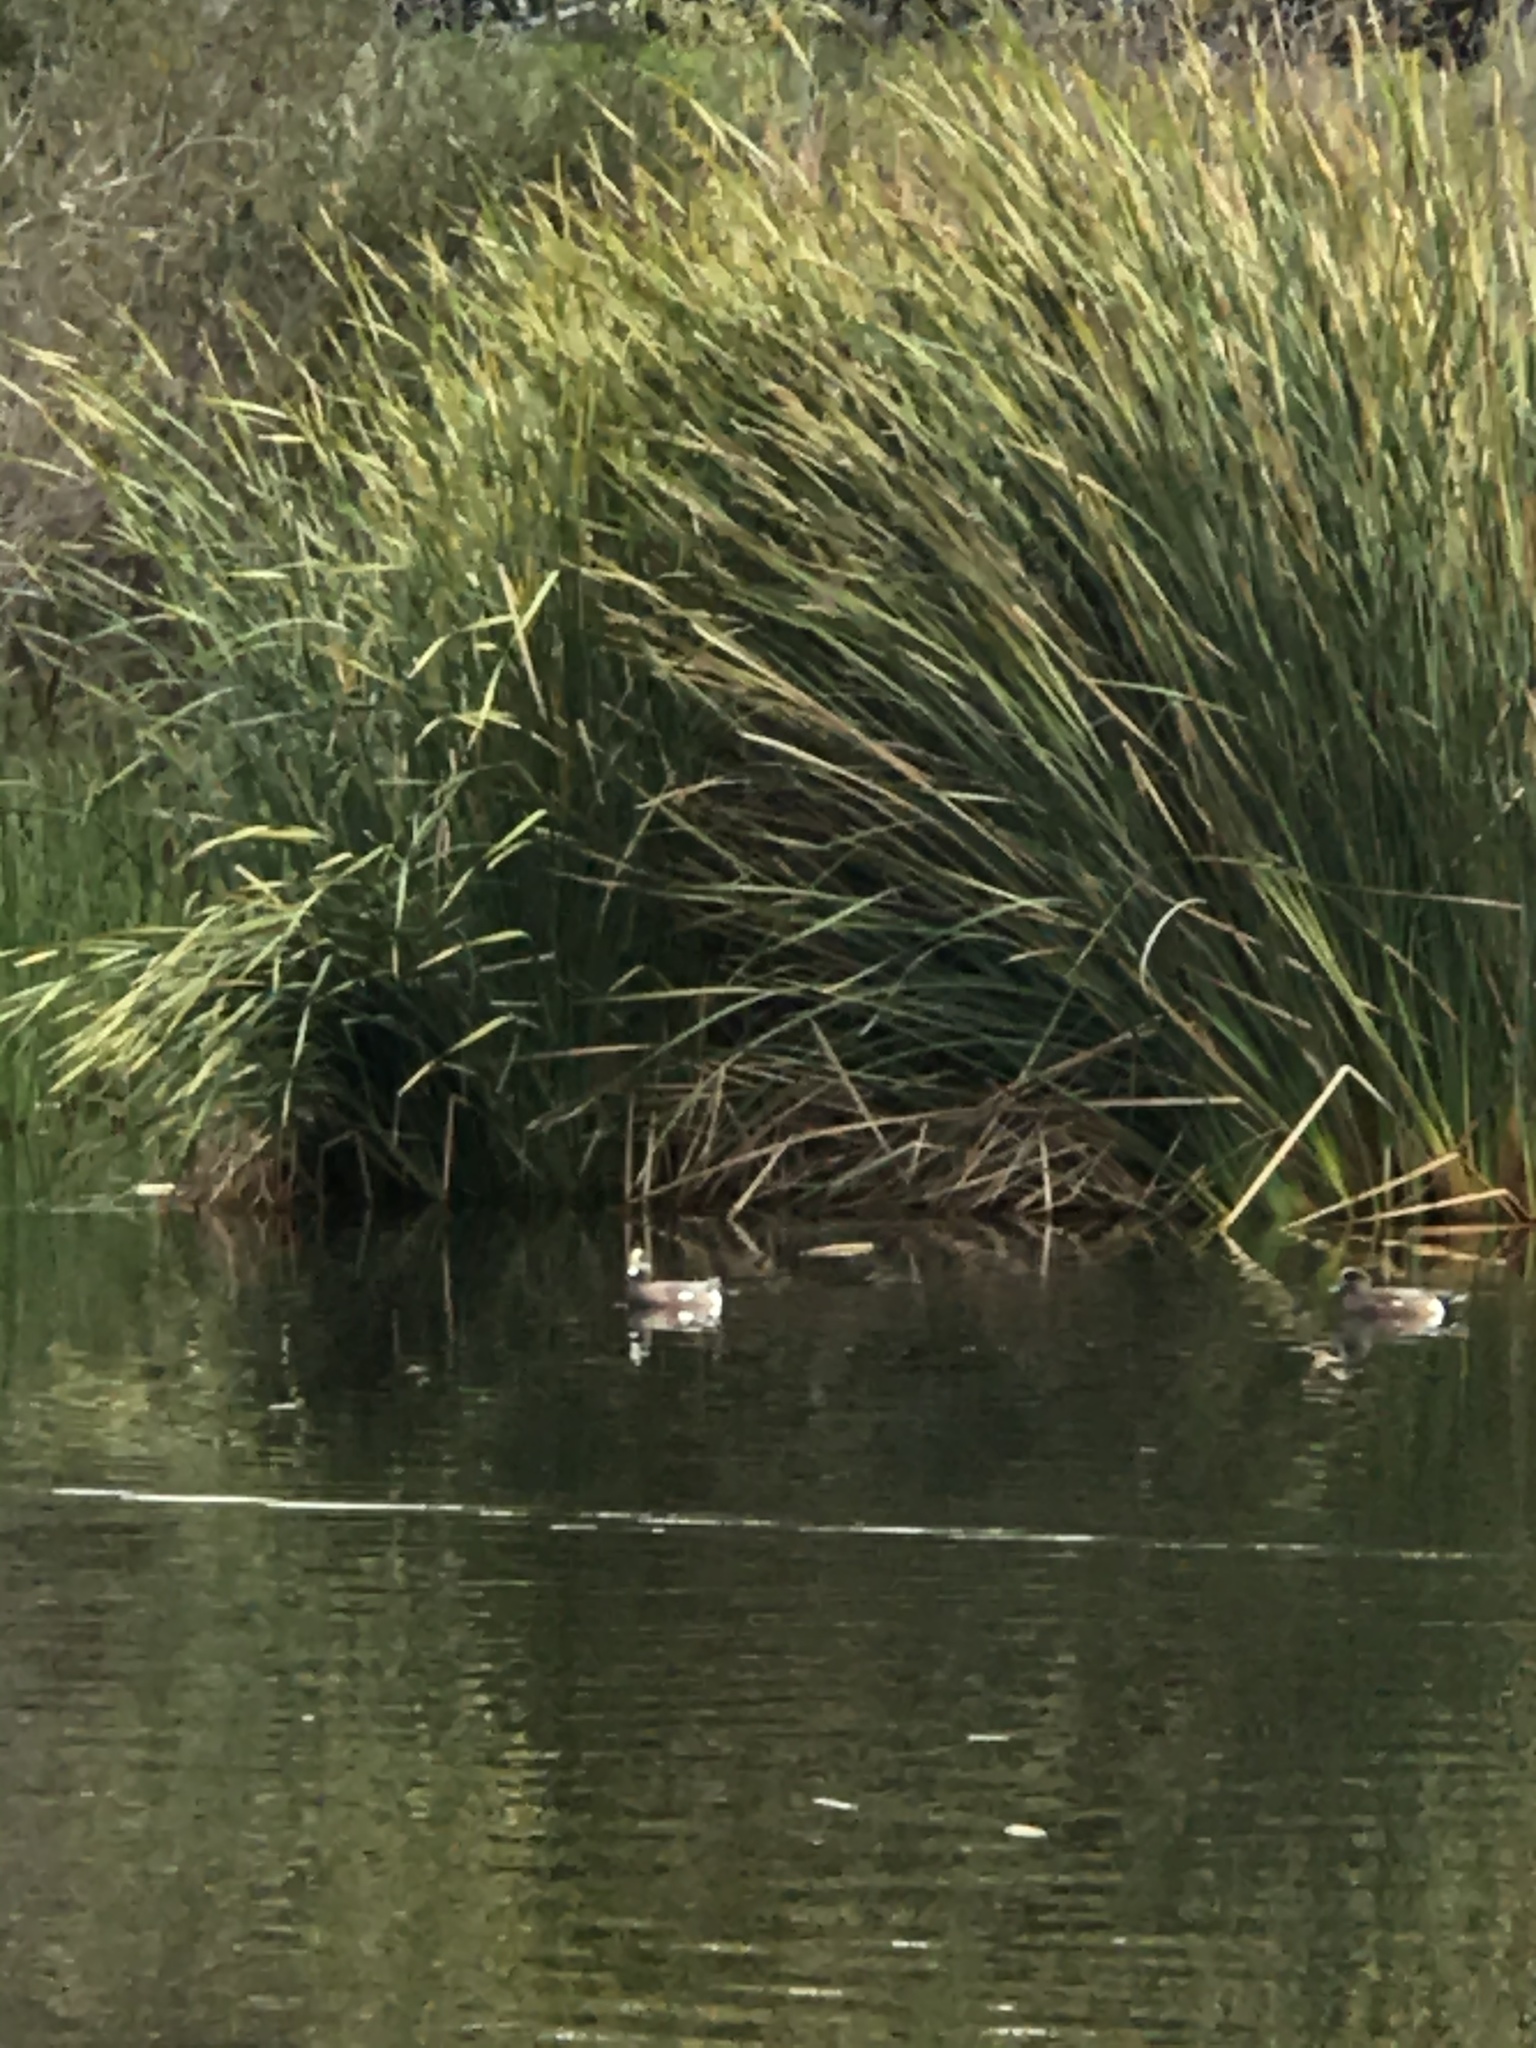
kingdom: Animalia
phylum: Chordata
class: Aves
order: Anseriformes
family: Anatidae
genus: Mareca
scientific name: Mareca americana
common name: American wigeon
